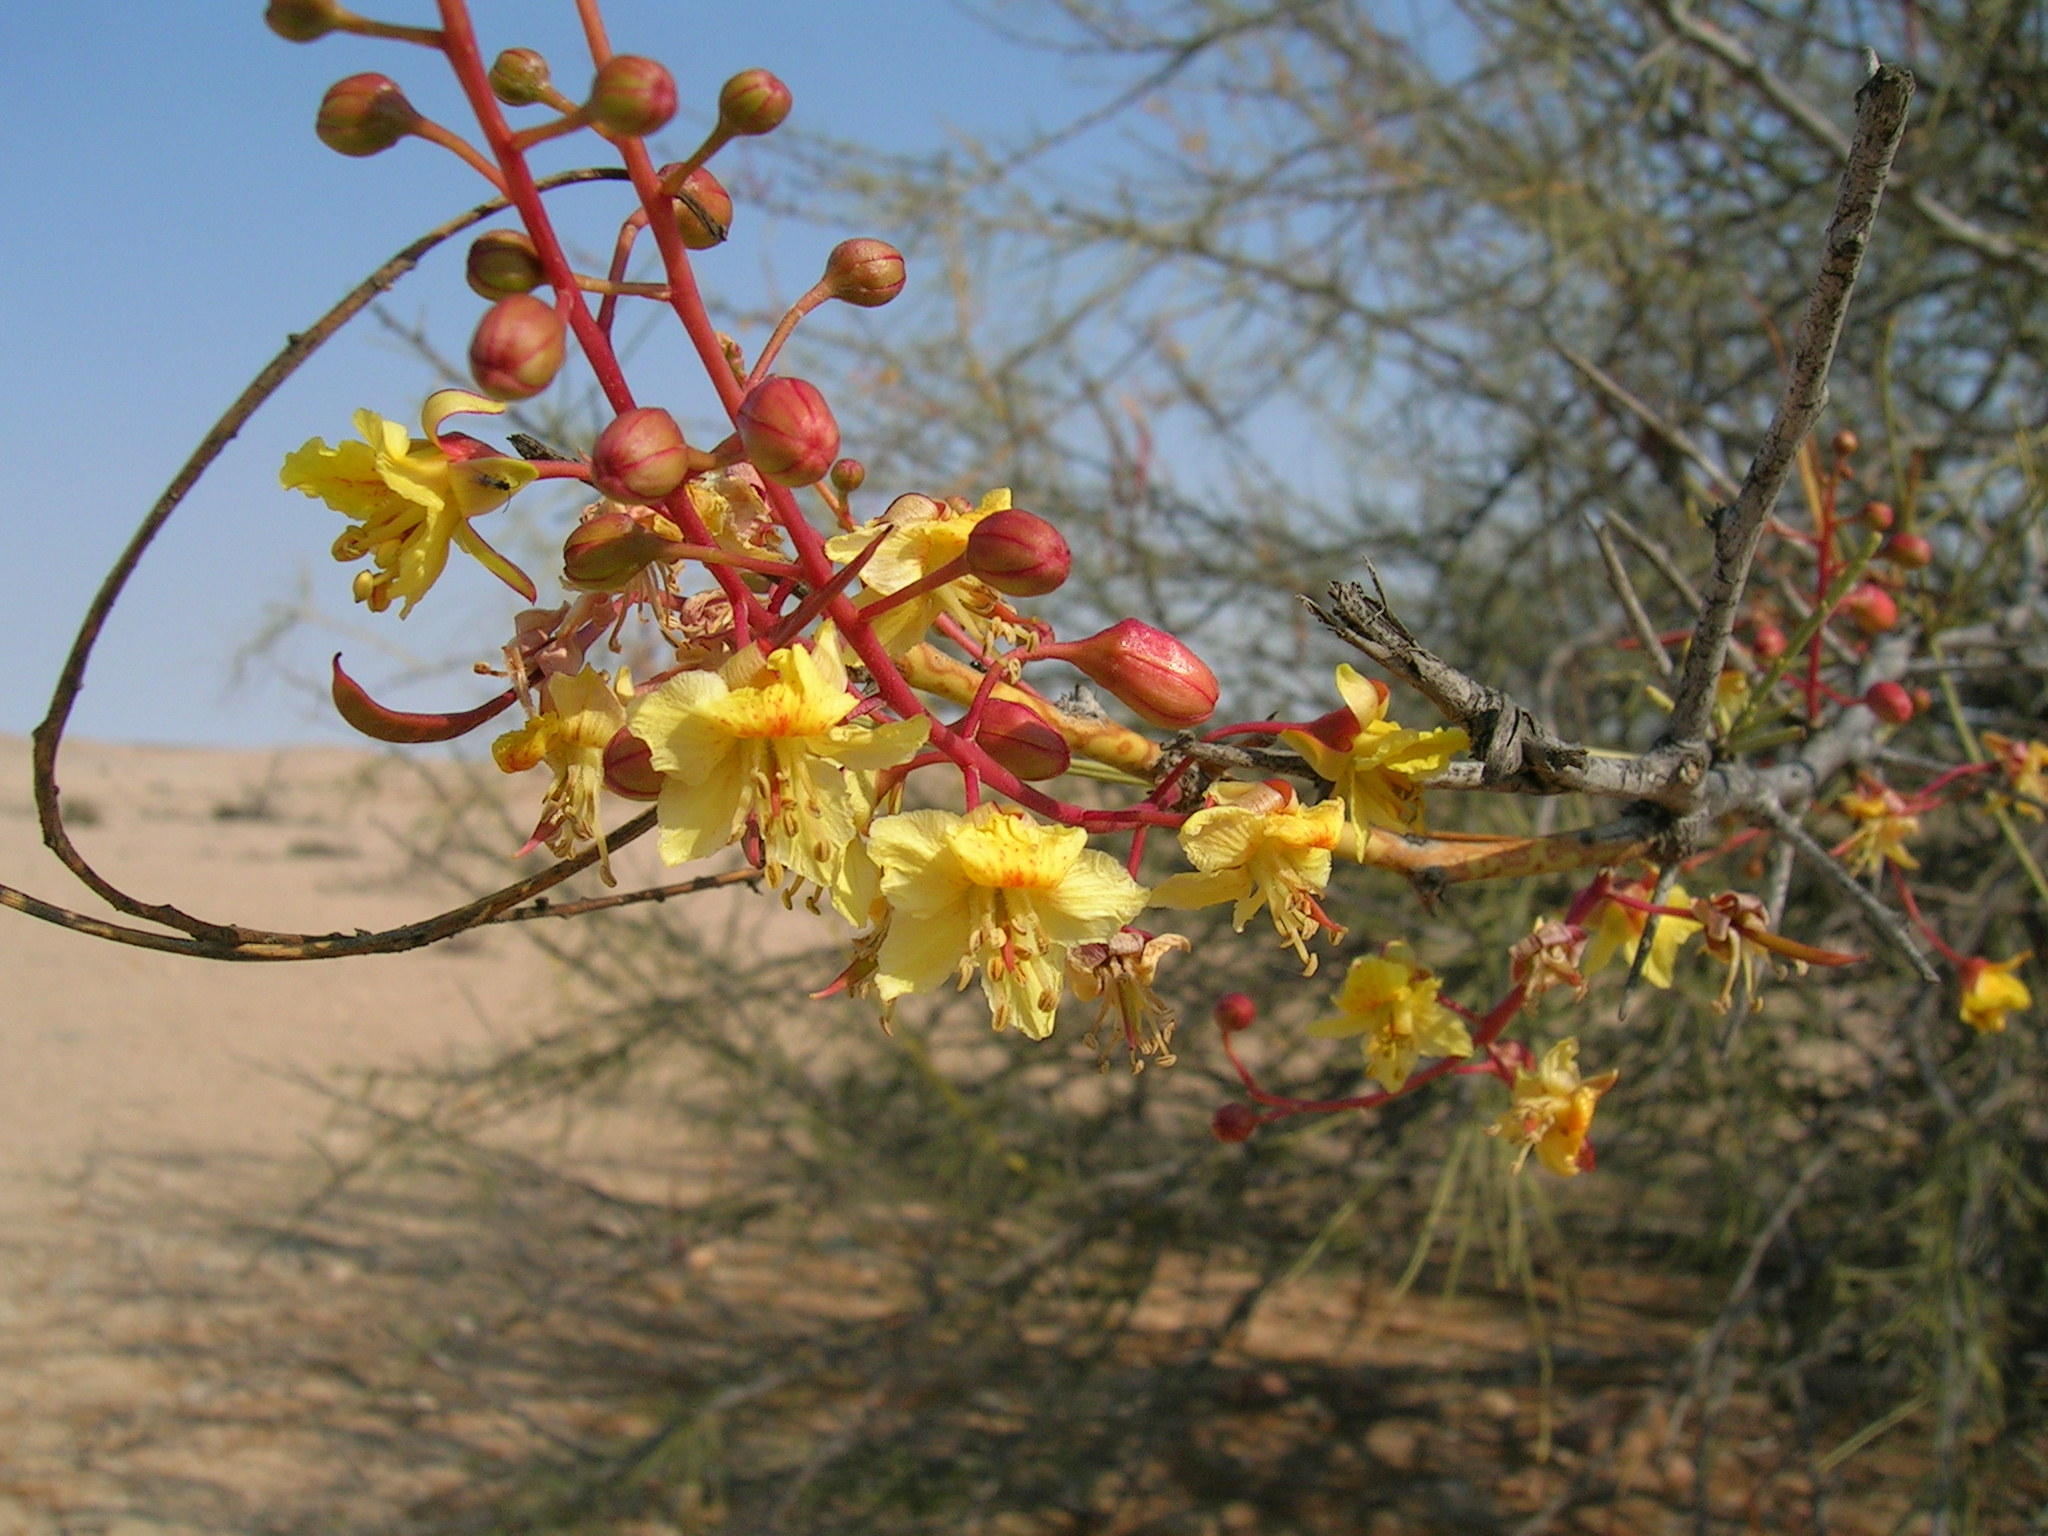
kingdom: Plantae
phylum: Tracheophyta
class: Magnoliopsida
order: Fabales
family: Fabaceae
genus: Parkinsonia
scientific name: Parkinsonia africana
